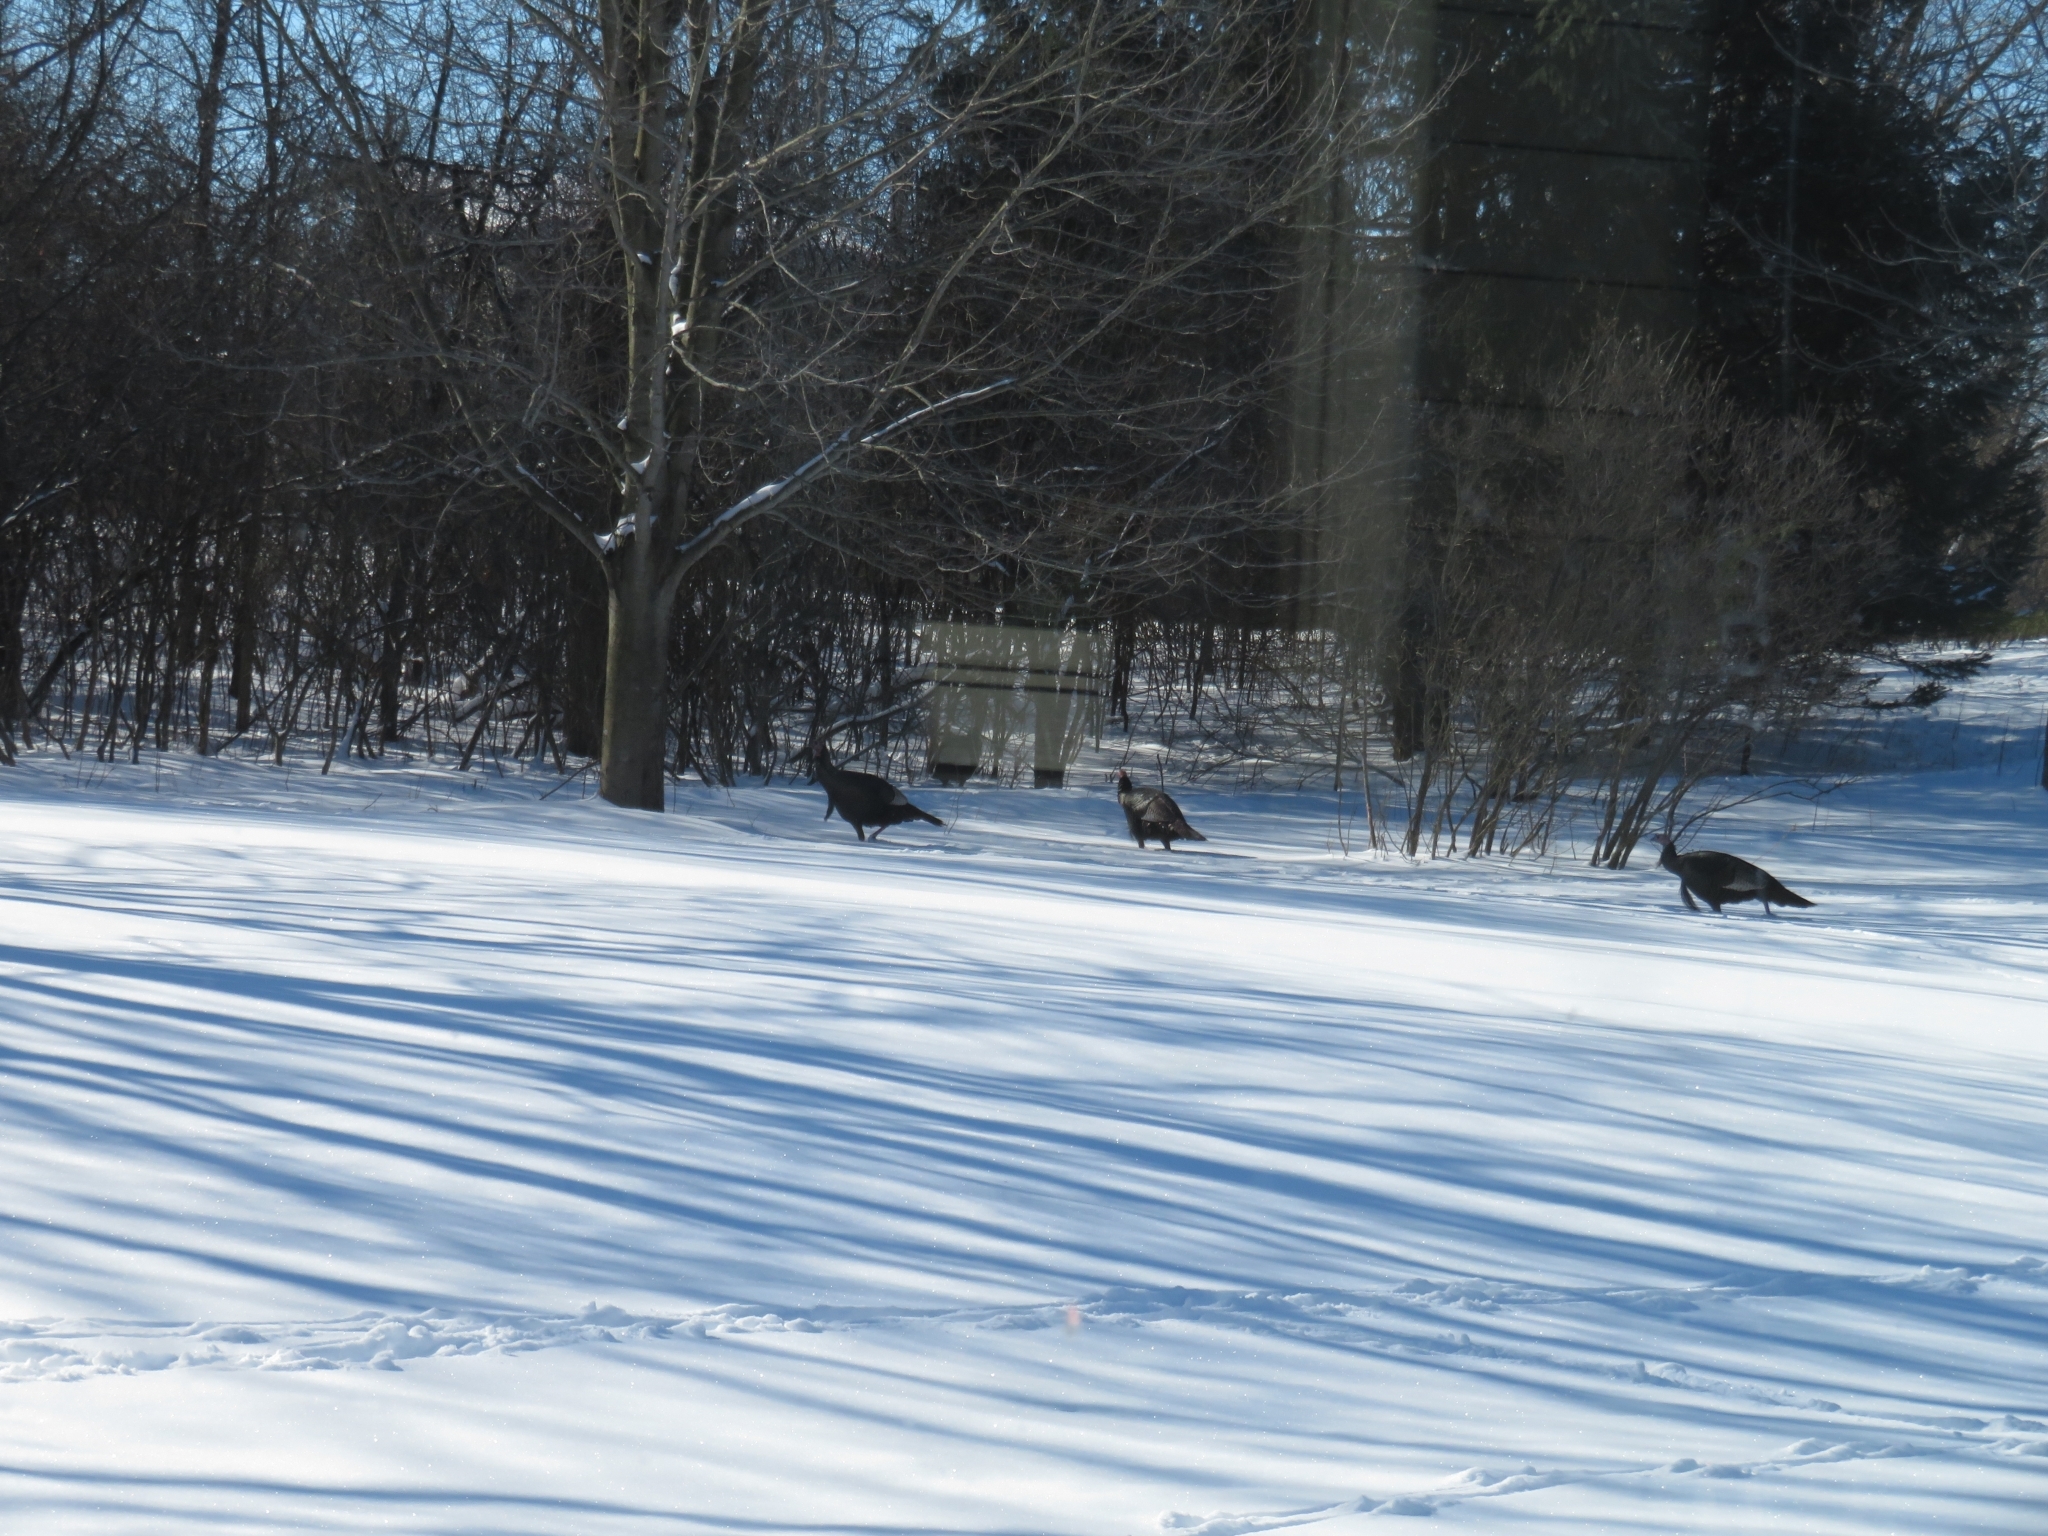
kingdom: Animalia
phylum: Chordata
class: Aves
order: Galliformes
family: Phasianidae
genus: Meleagris
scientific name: Meleagris gallopavo
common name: Wild turkey
